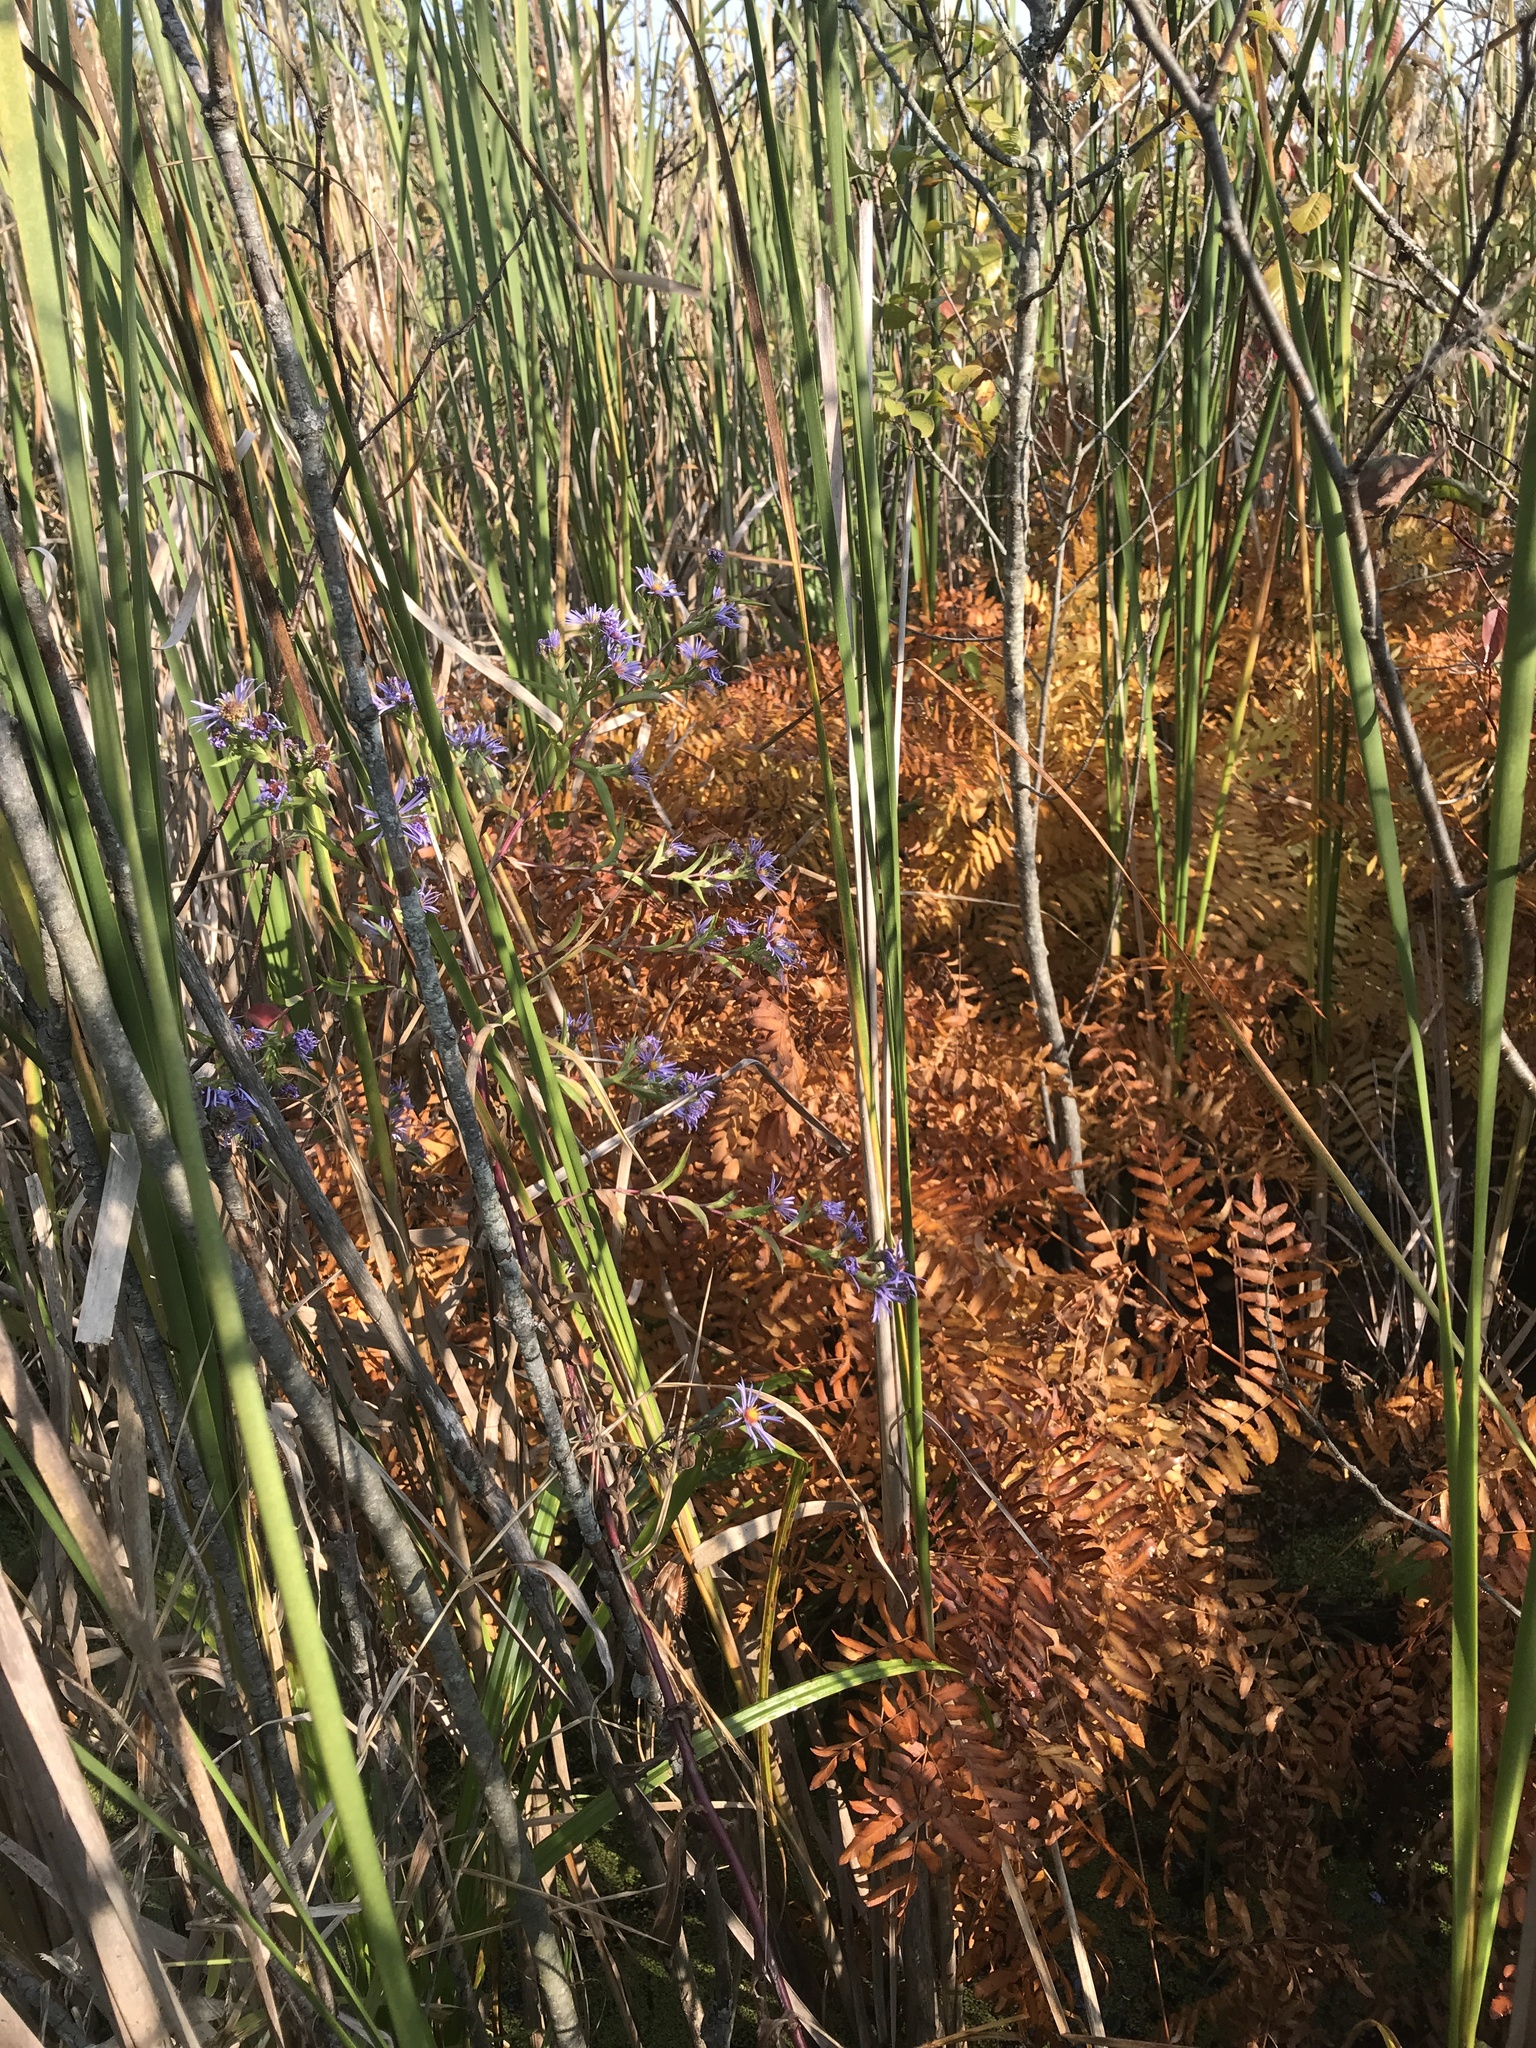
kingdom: Plantae
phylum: Tracheophyta
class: Polypodiopsida
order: Osmundales
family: Osmundaceae
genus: Osmunda
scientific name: Osmunda spectabilis
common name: American royal fern
